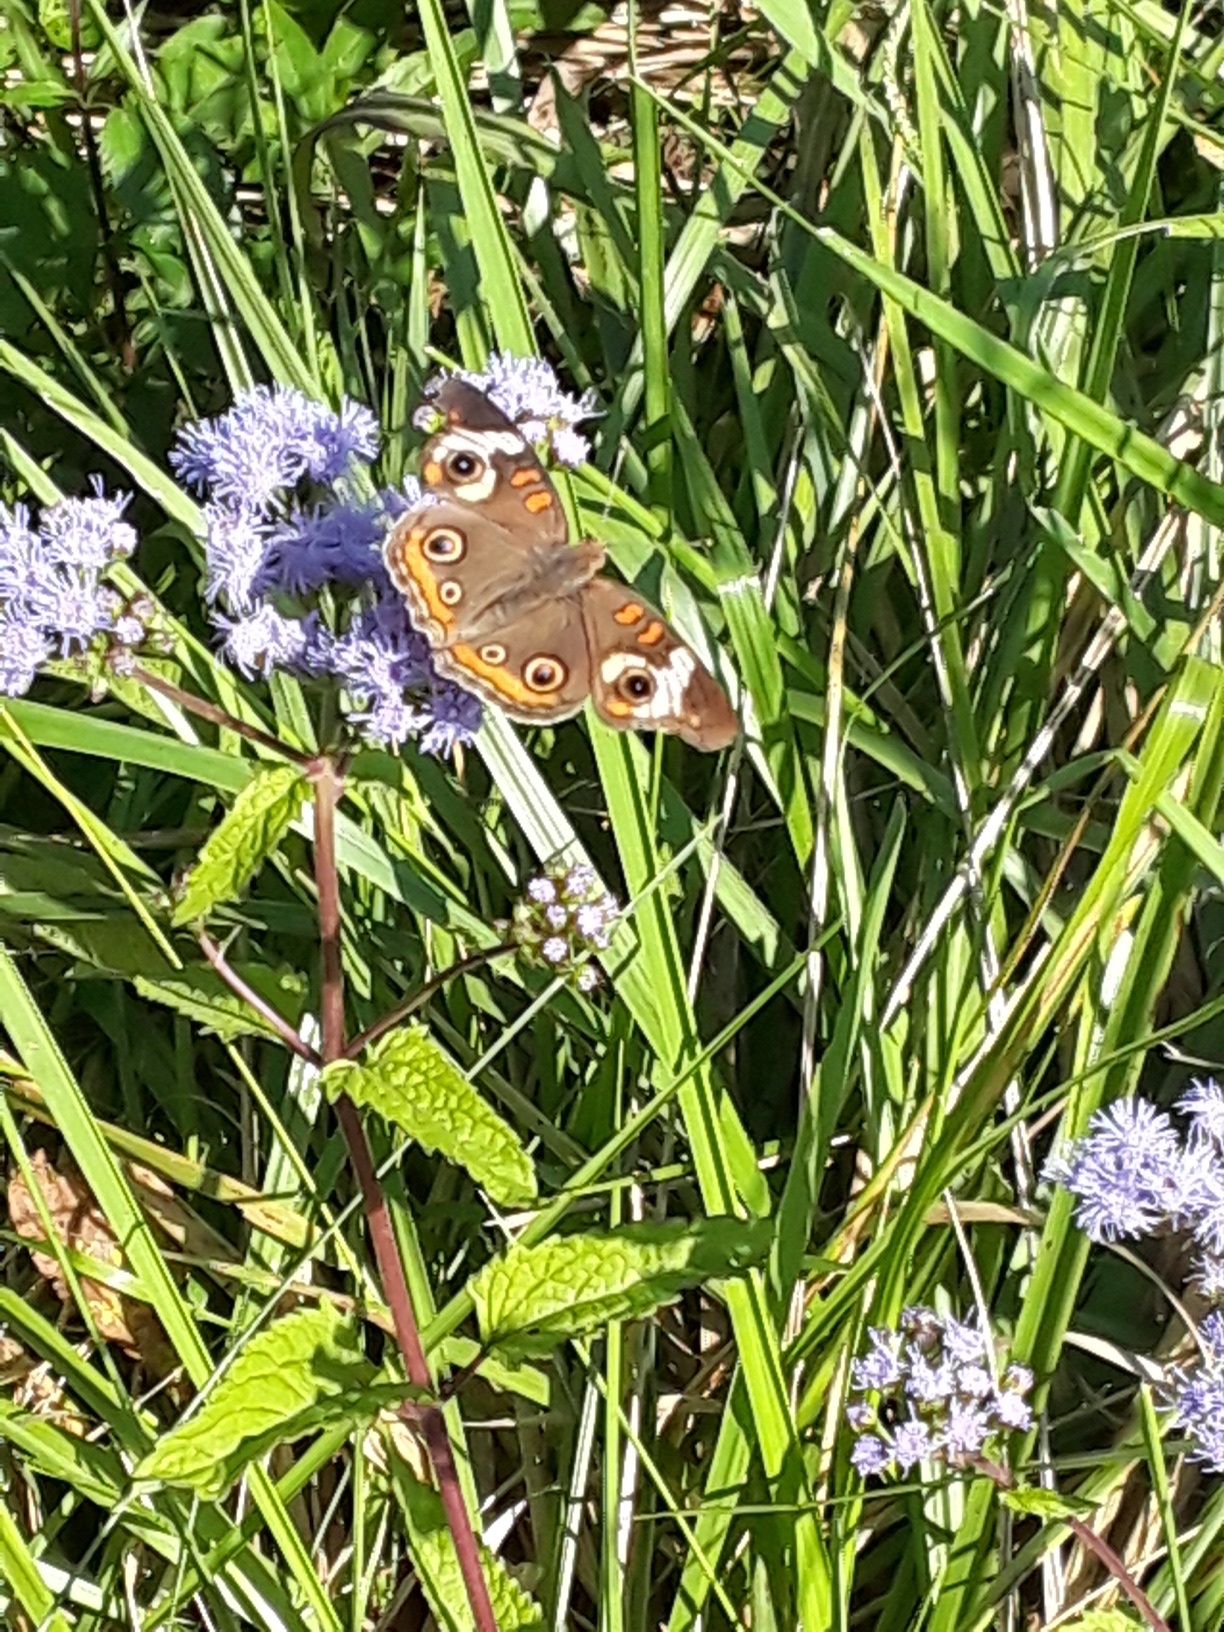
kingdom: Animalia
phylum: Arthropoda
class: Insecta
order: Lepidoptera
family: Nymphalidae
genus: Junonia
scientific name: Junonia coenia
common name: Common buckeye
